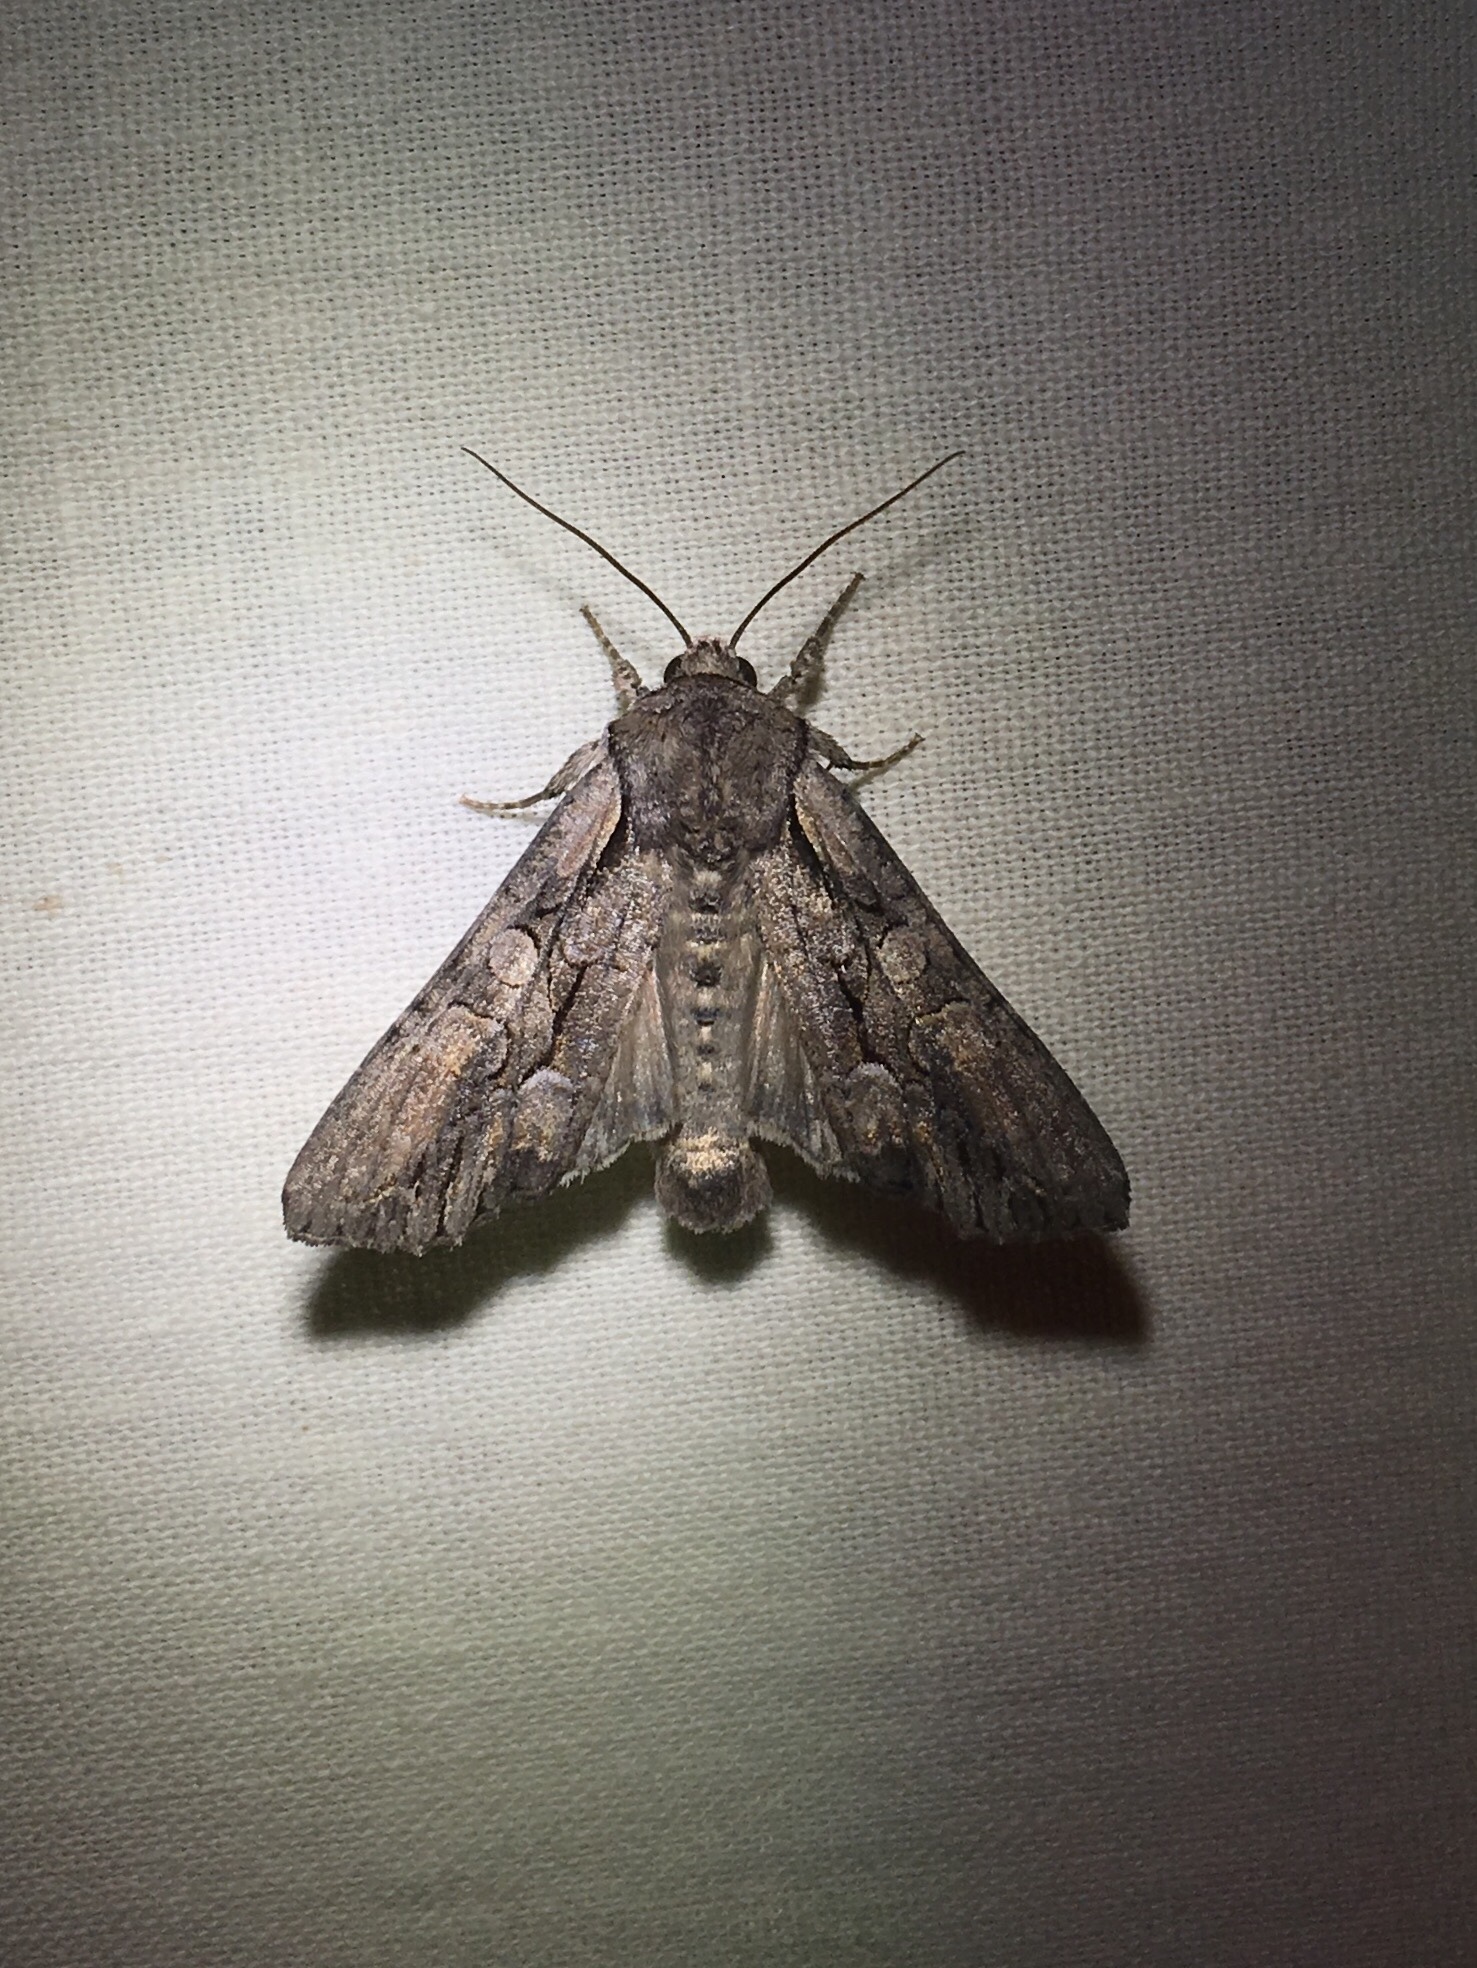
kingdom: Animalia
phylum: Arthropoda
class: Insecta
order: Lepidoptera
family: Noctuidae
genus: Lacanobia
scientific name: Lacanobia subjuncta
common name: Speckled cutworm moth
